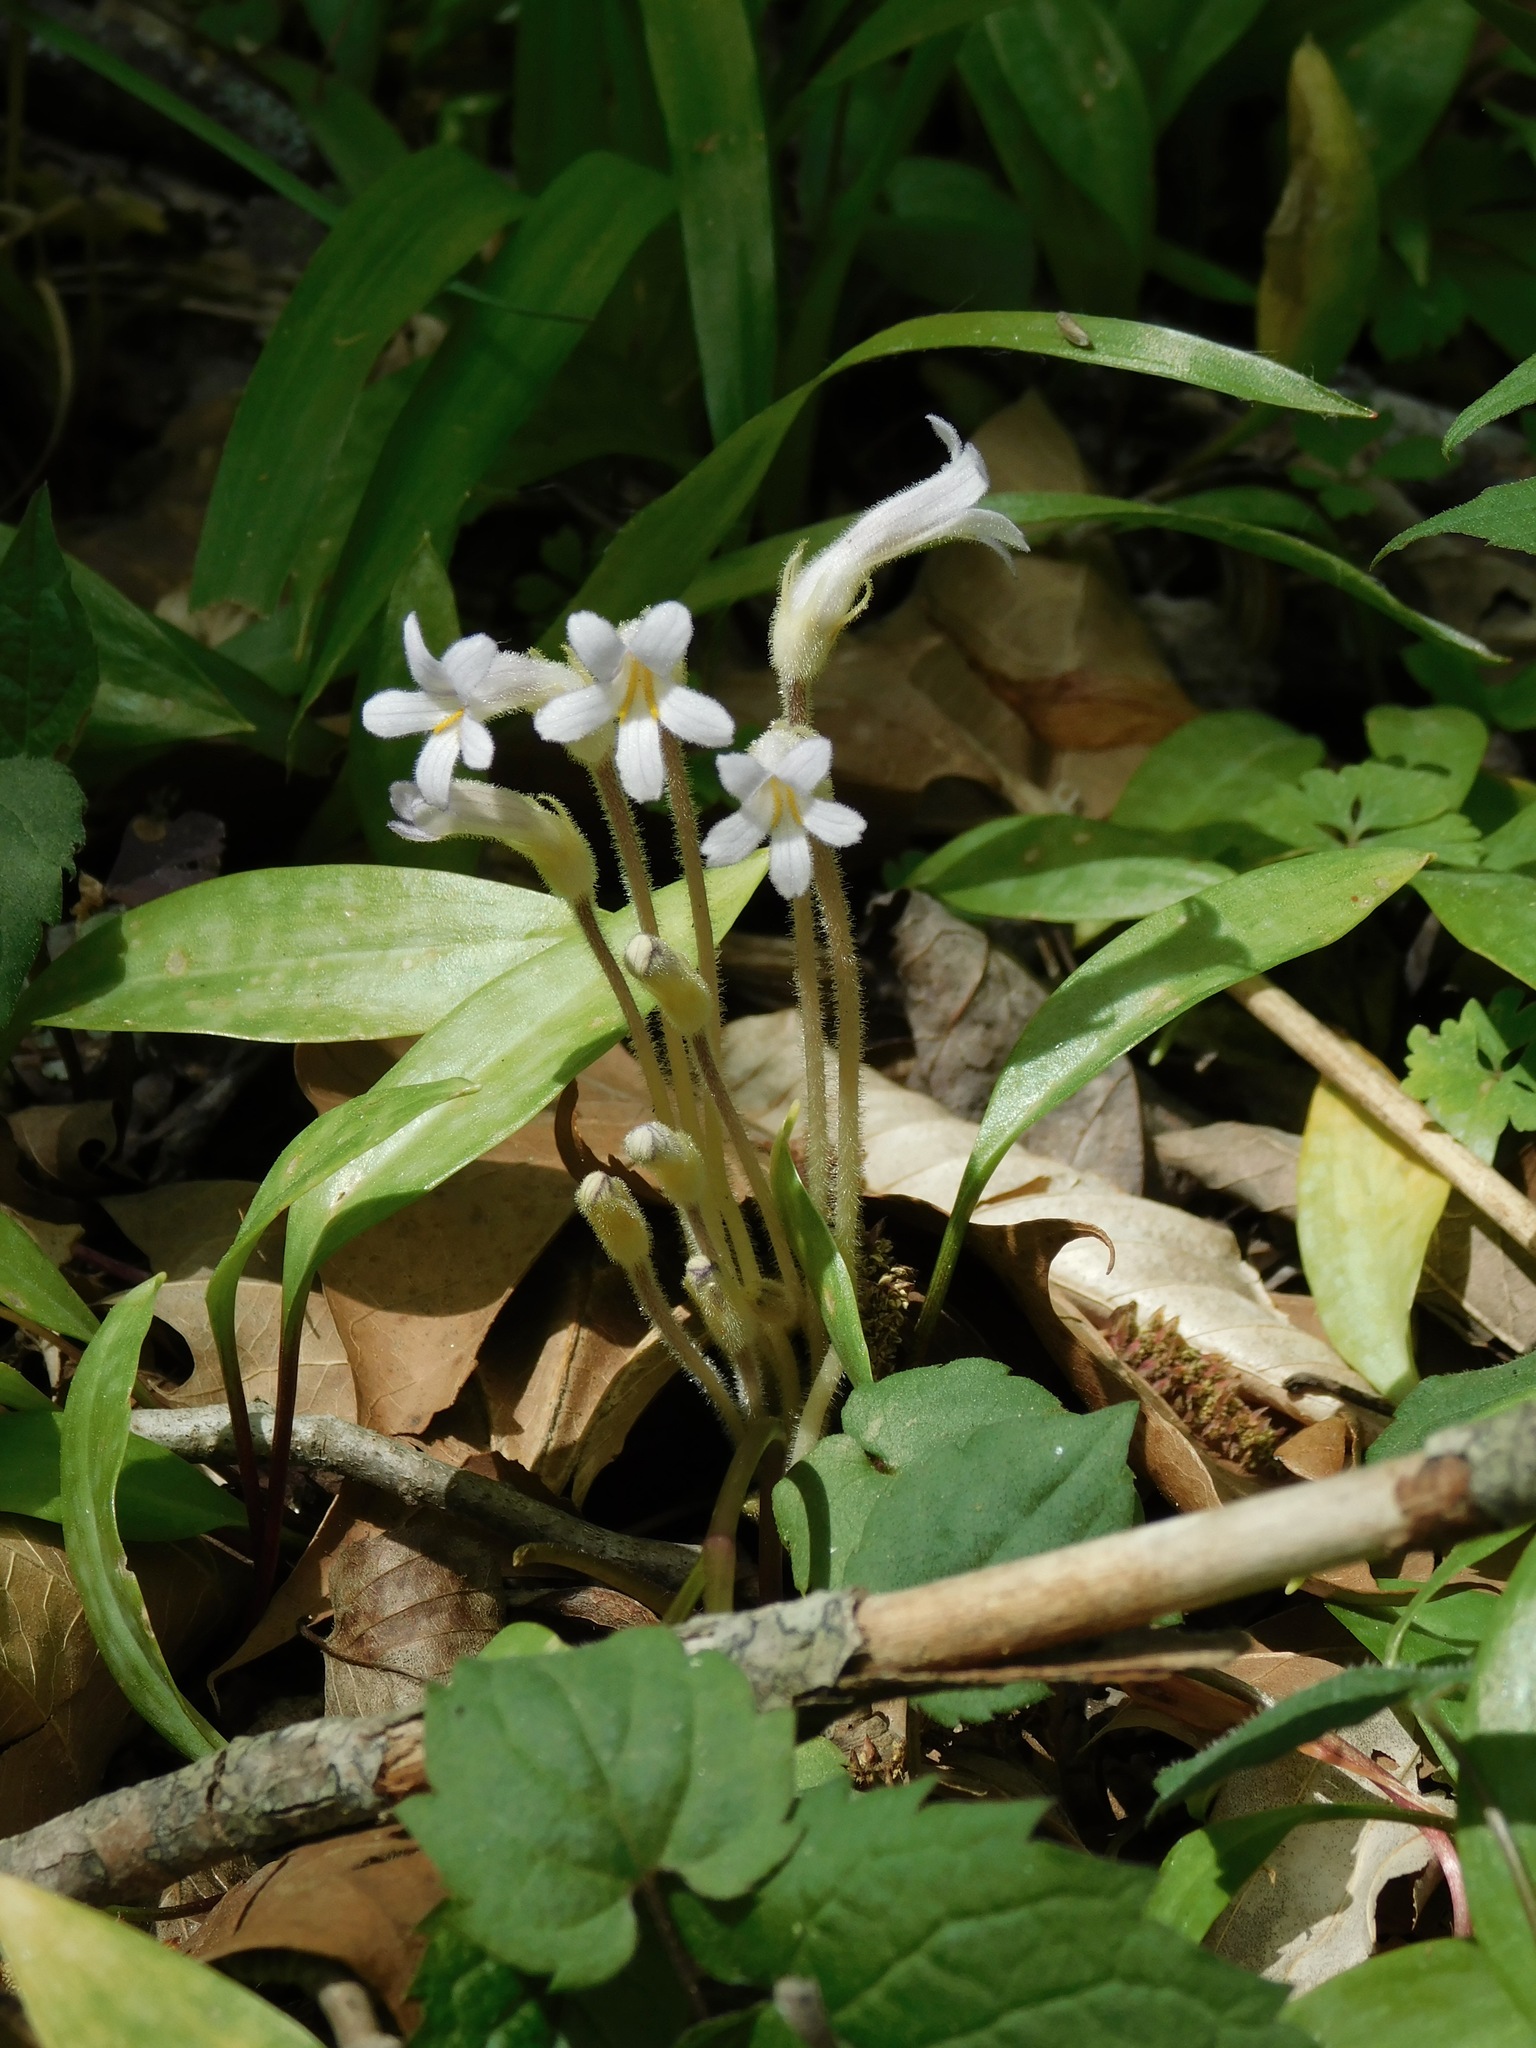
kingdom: Plantae
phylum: Tracheophyta
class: Magnoliopsida
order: Lamiales
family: Orobanchaceae
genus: Aphyllon
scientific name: Aphyllon uniflorum
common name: One-flowered broomrape
